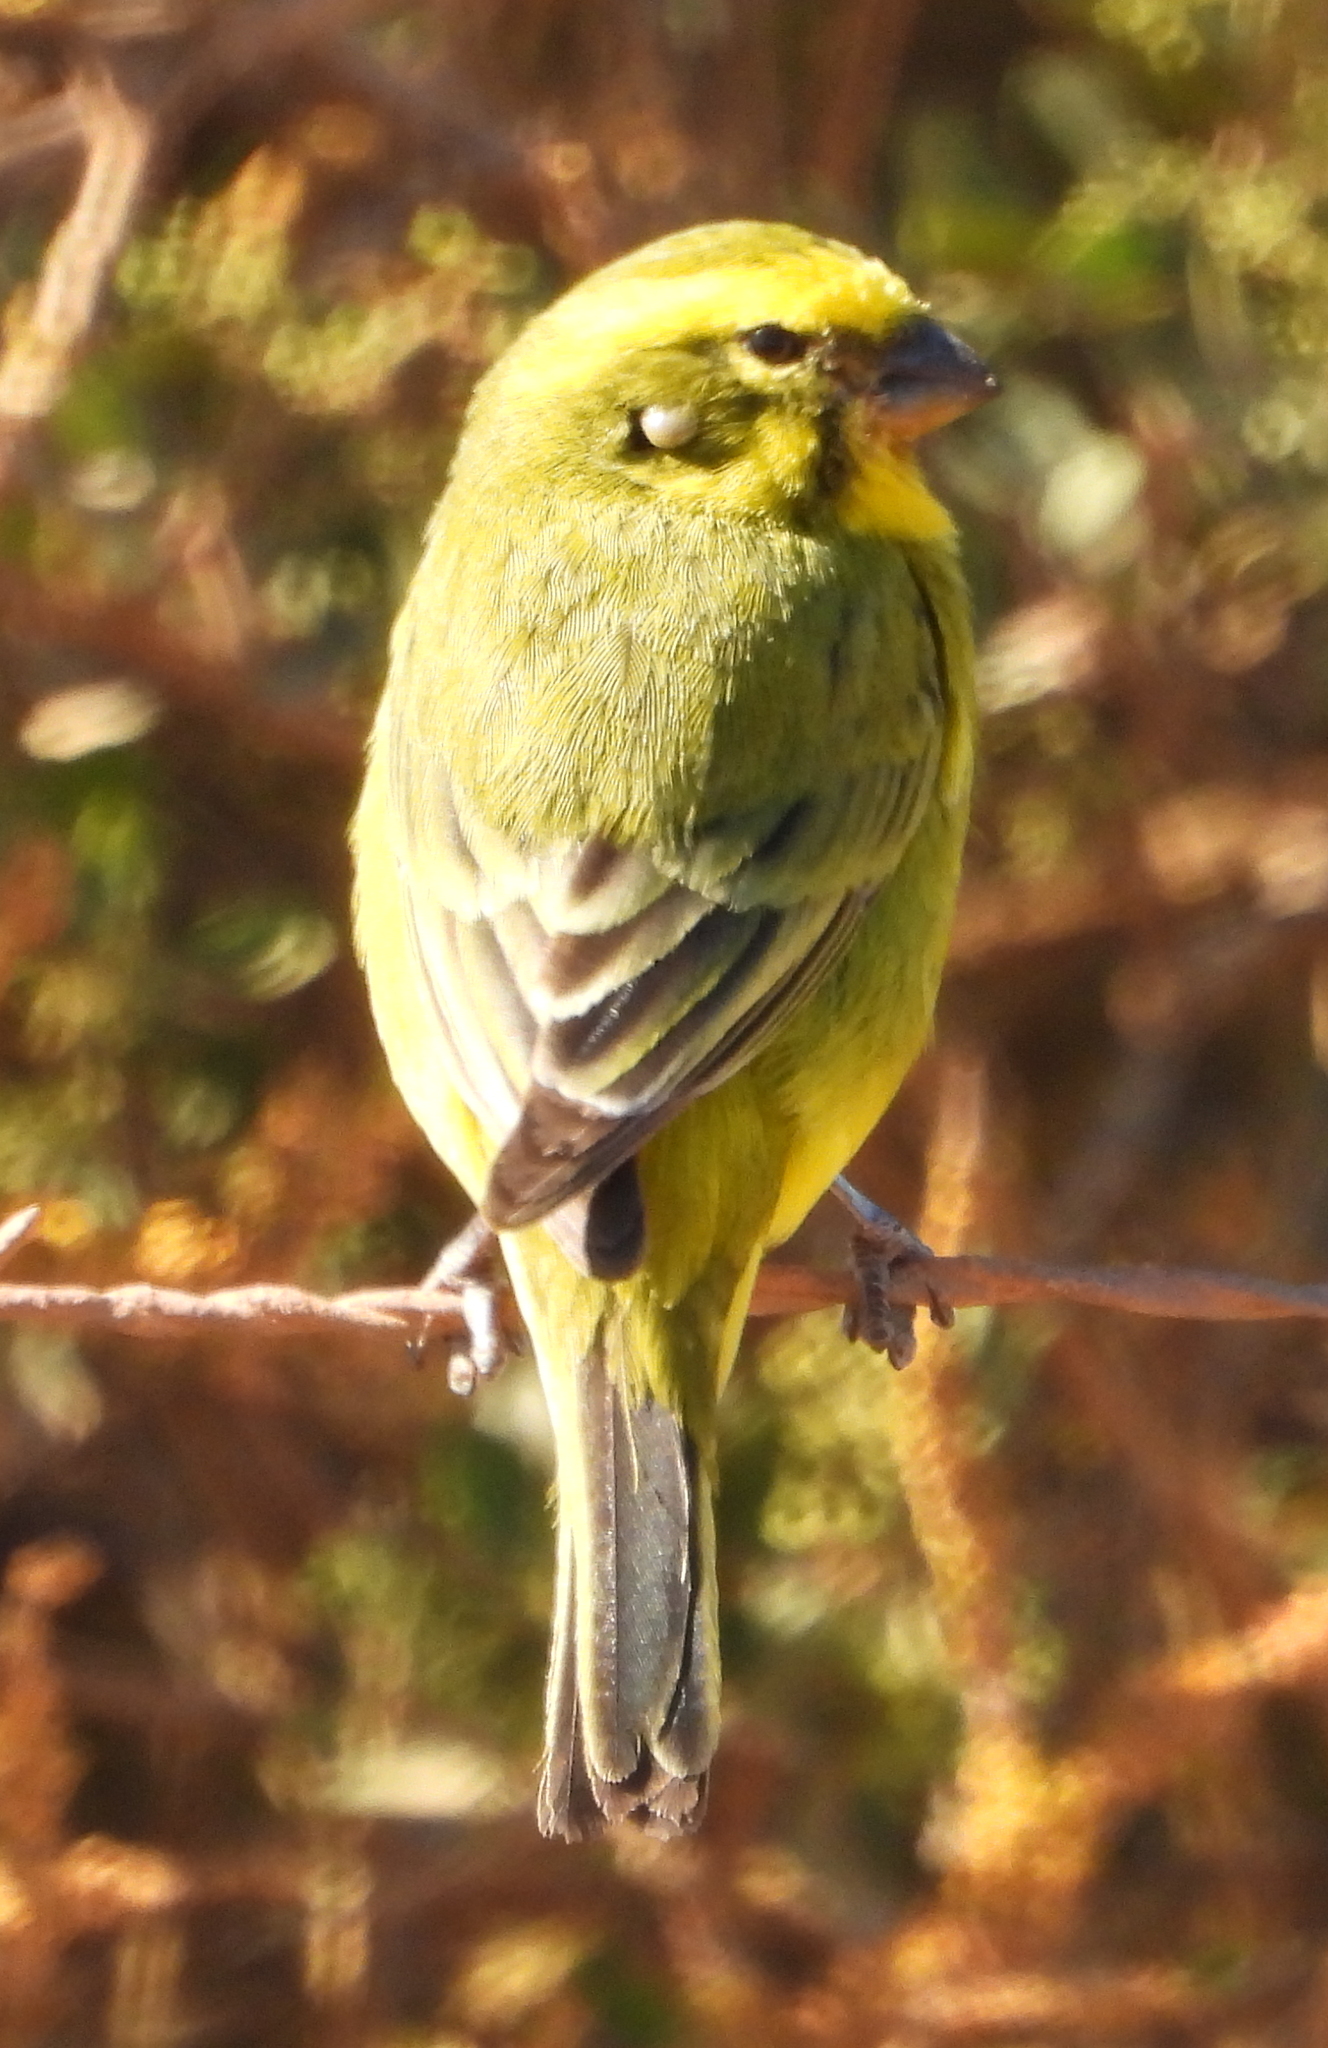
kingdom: Animalia
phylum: Chordata
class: Aves
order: Passeriformes
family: Fringillidae
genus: Crithagra
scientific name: Crithagra flaviventris
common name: Yellow canary
